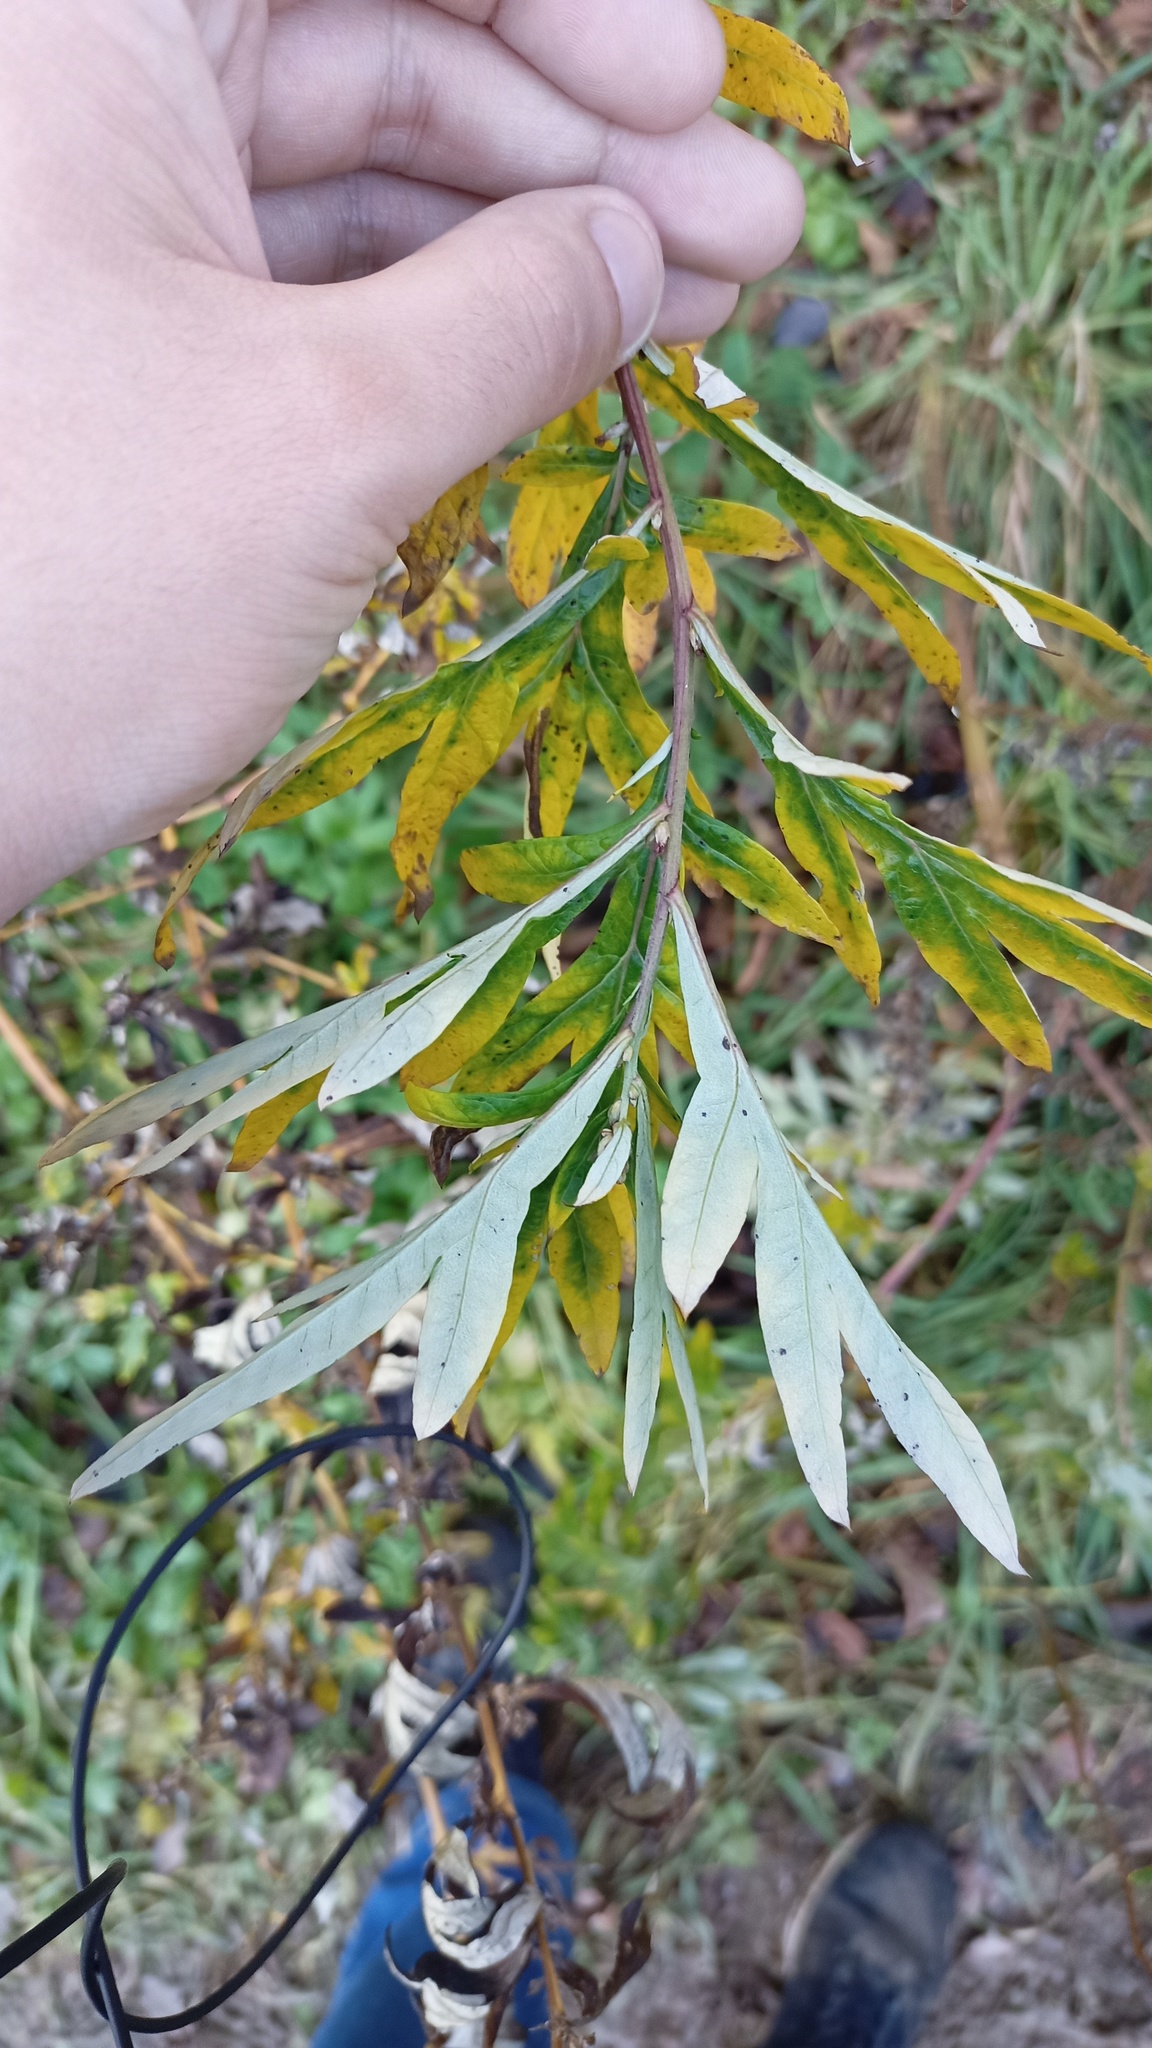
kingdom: Plantae
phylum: Tracheophyta
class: Magnoliopsida
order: Asterales
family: Asteraceae
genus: Artemisia
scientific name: Artemisia vulgaris
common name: Mugwort
